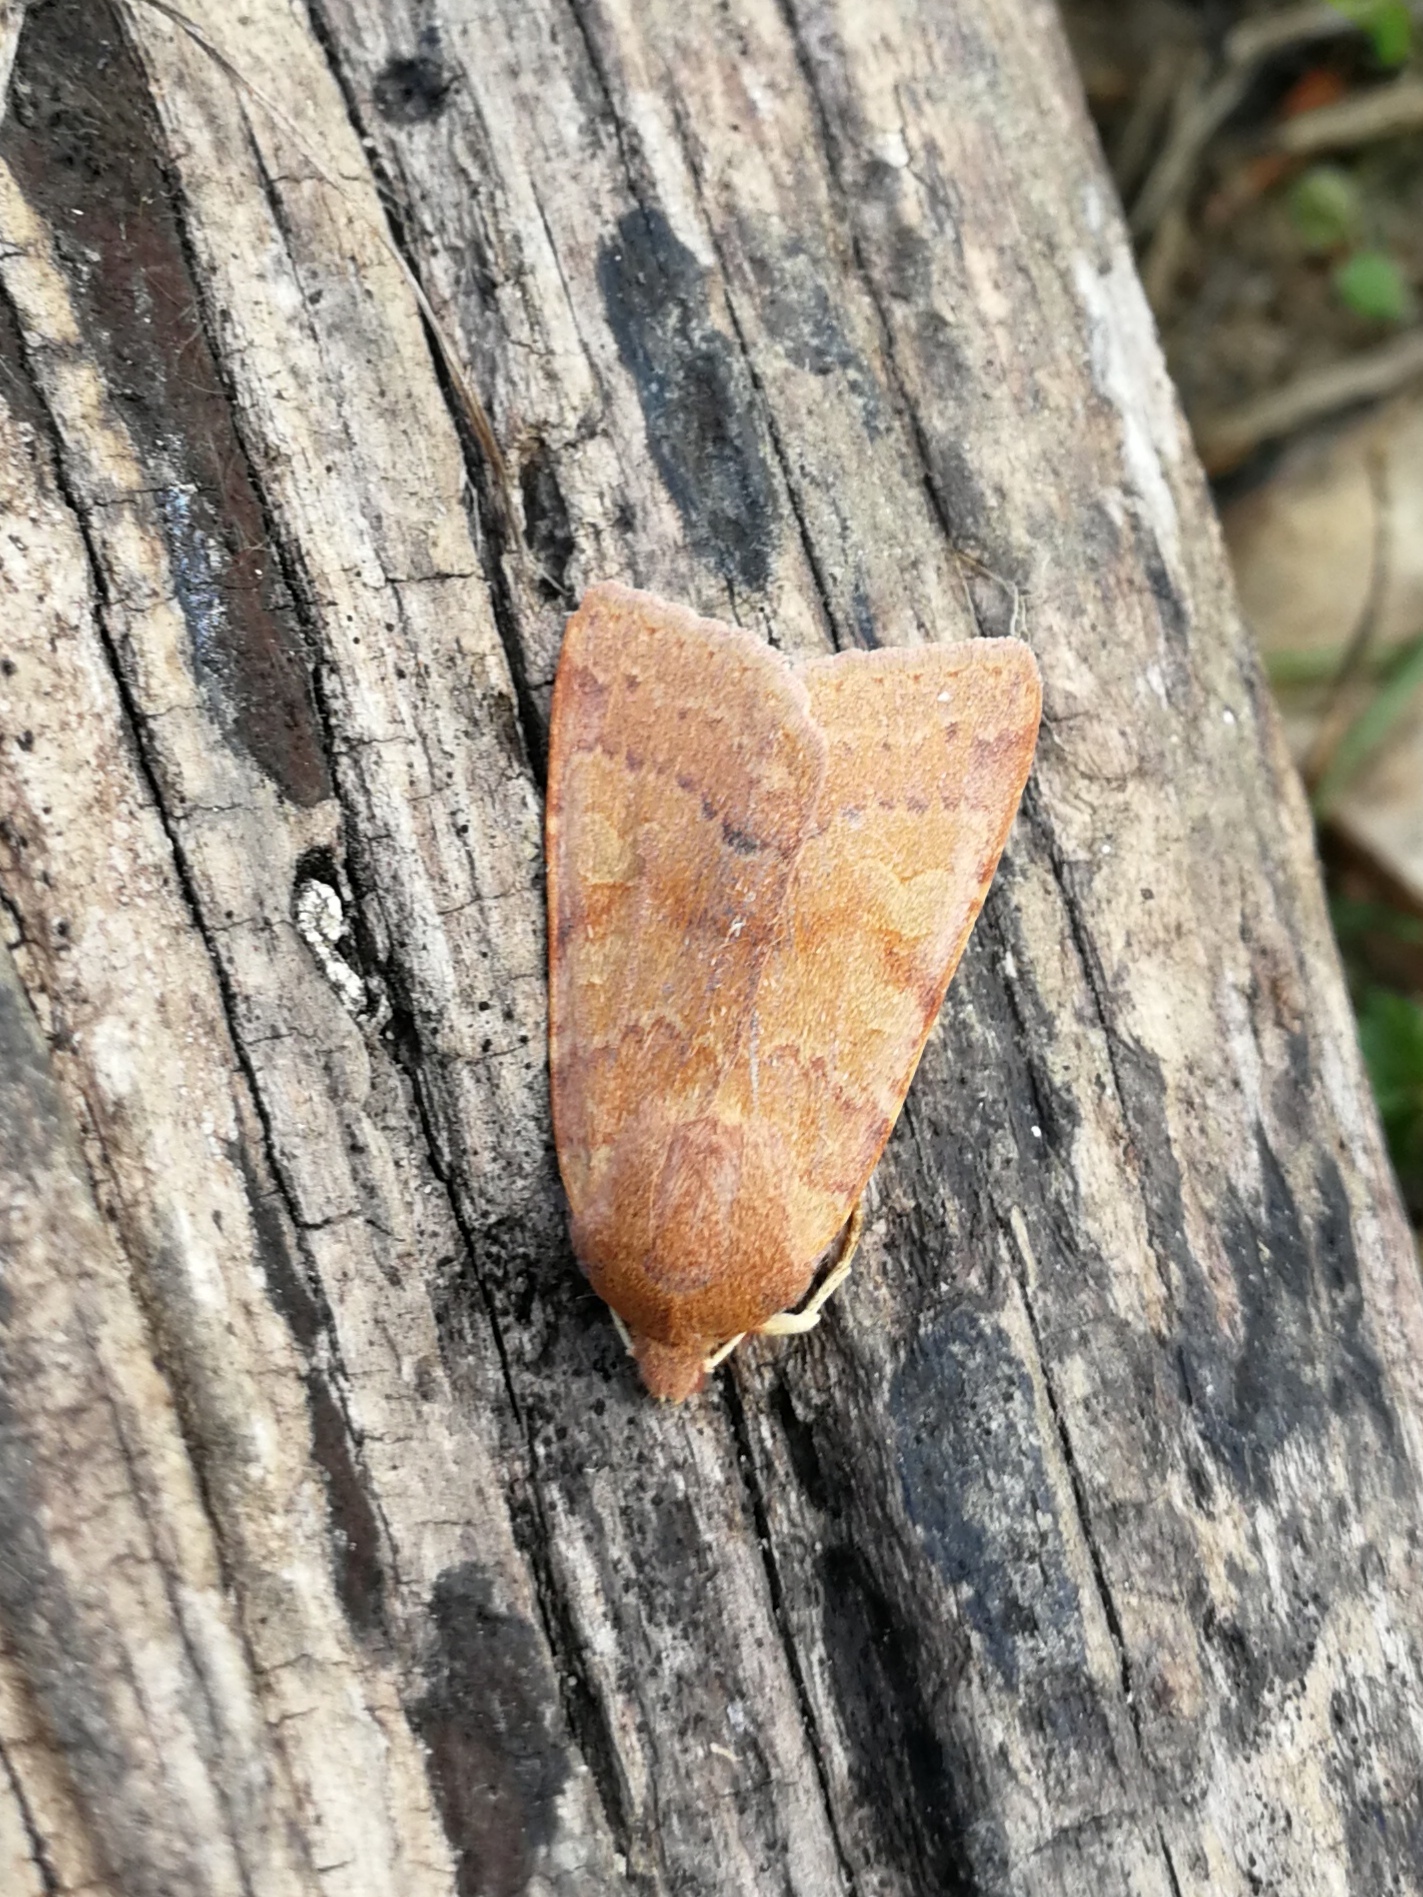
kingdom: Animalia
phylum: Arthropoda
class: Insecta
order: Lepidoptera
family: Noctuidae
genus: Agrochola
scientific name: Agrochola helvola
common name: Flounced chestnut
